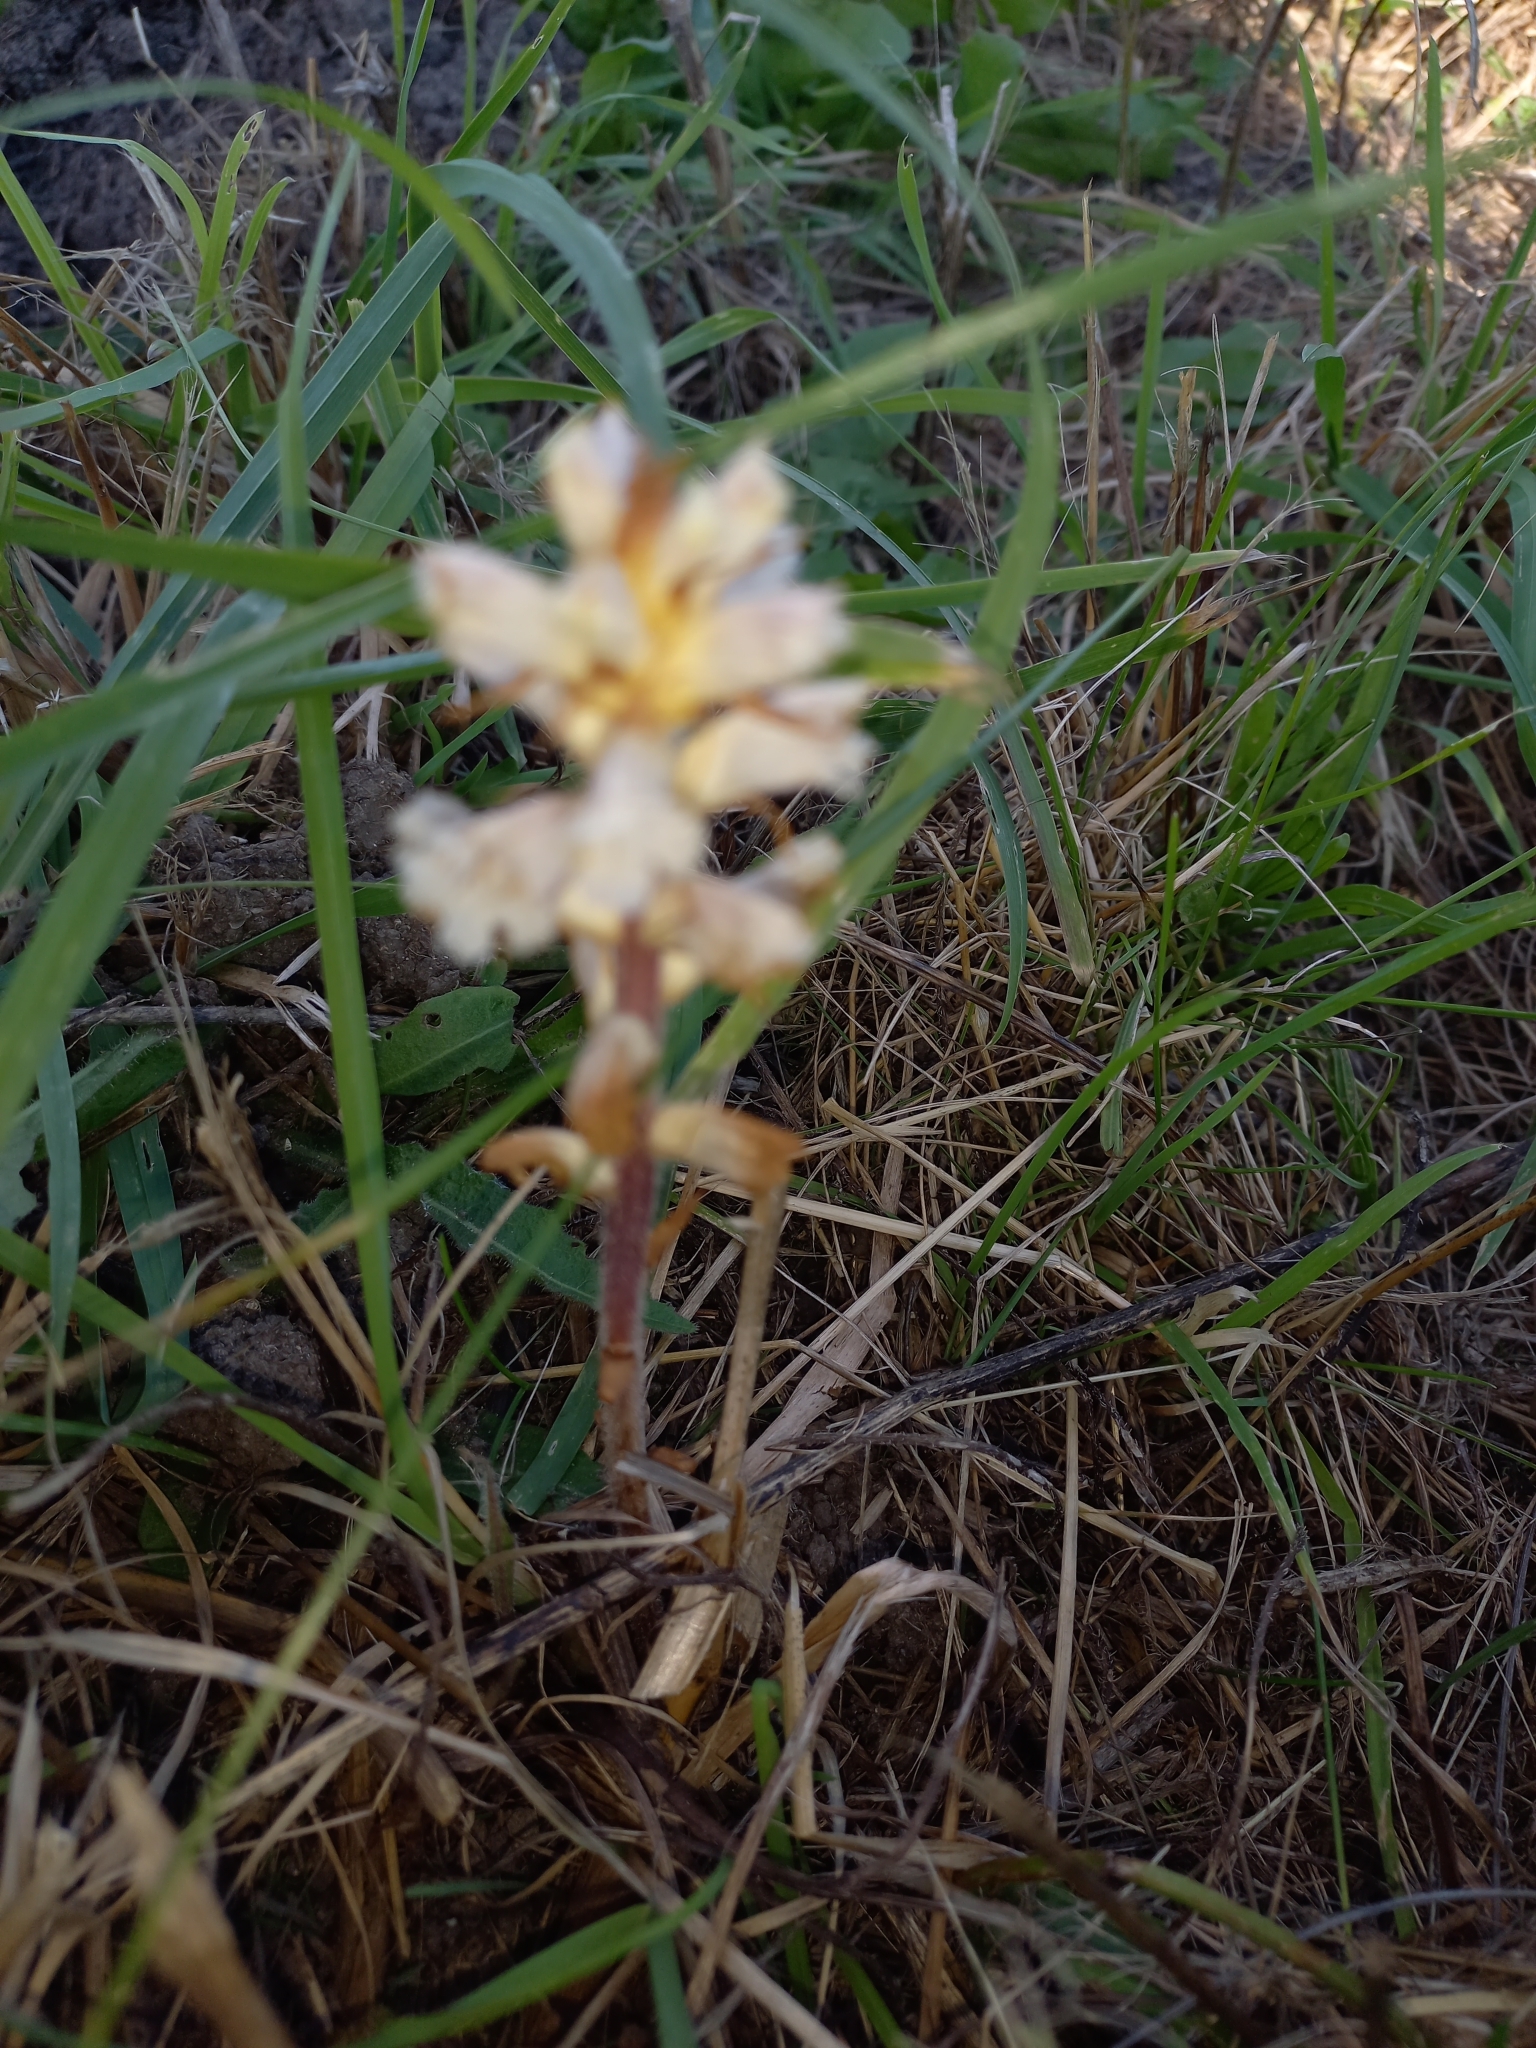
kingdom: Plantae
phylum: Tracheophyta
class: Magnoliopsida
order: Lamiales
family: Orobanchaceae
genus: Orobanche
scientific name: Orobanche picridis
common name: Oxtongue broomrape
